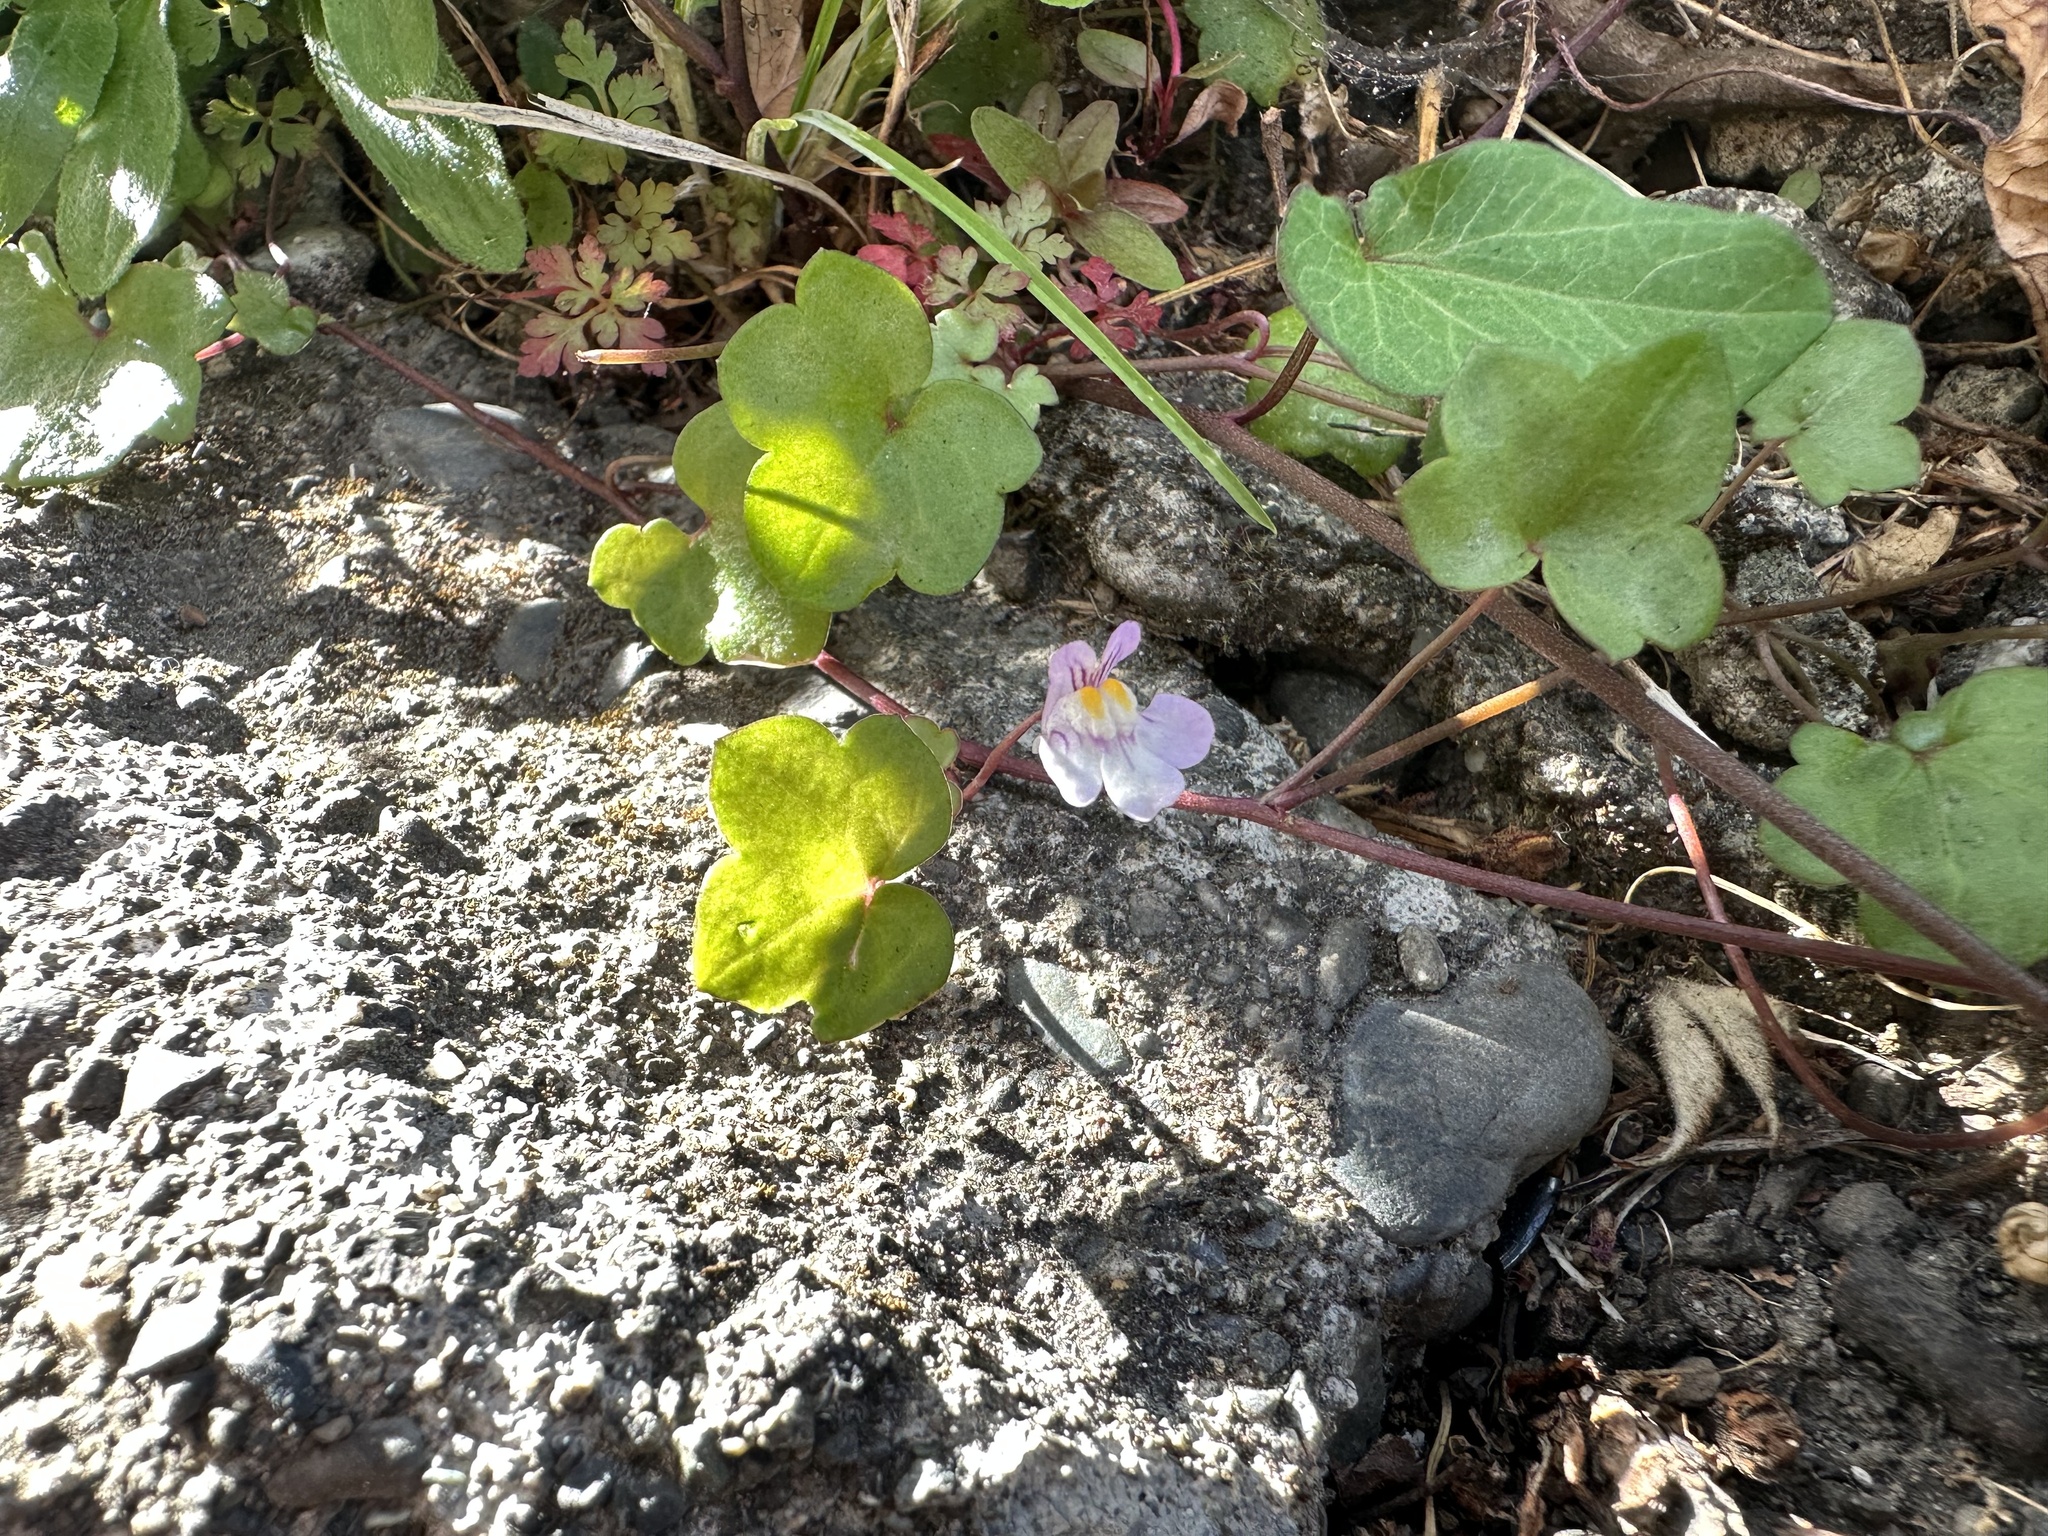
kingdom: Plantae
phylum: Tracheophyta
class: Magnoliopsida
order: Lamiales
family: Plantaginaceae
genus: Cymbalaria
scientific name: Cymbalaria muralis
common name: Ivy-leaved toadflax
